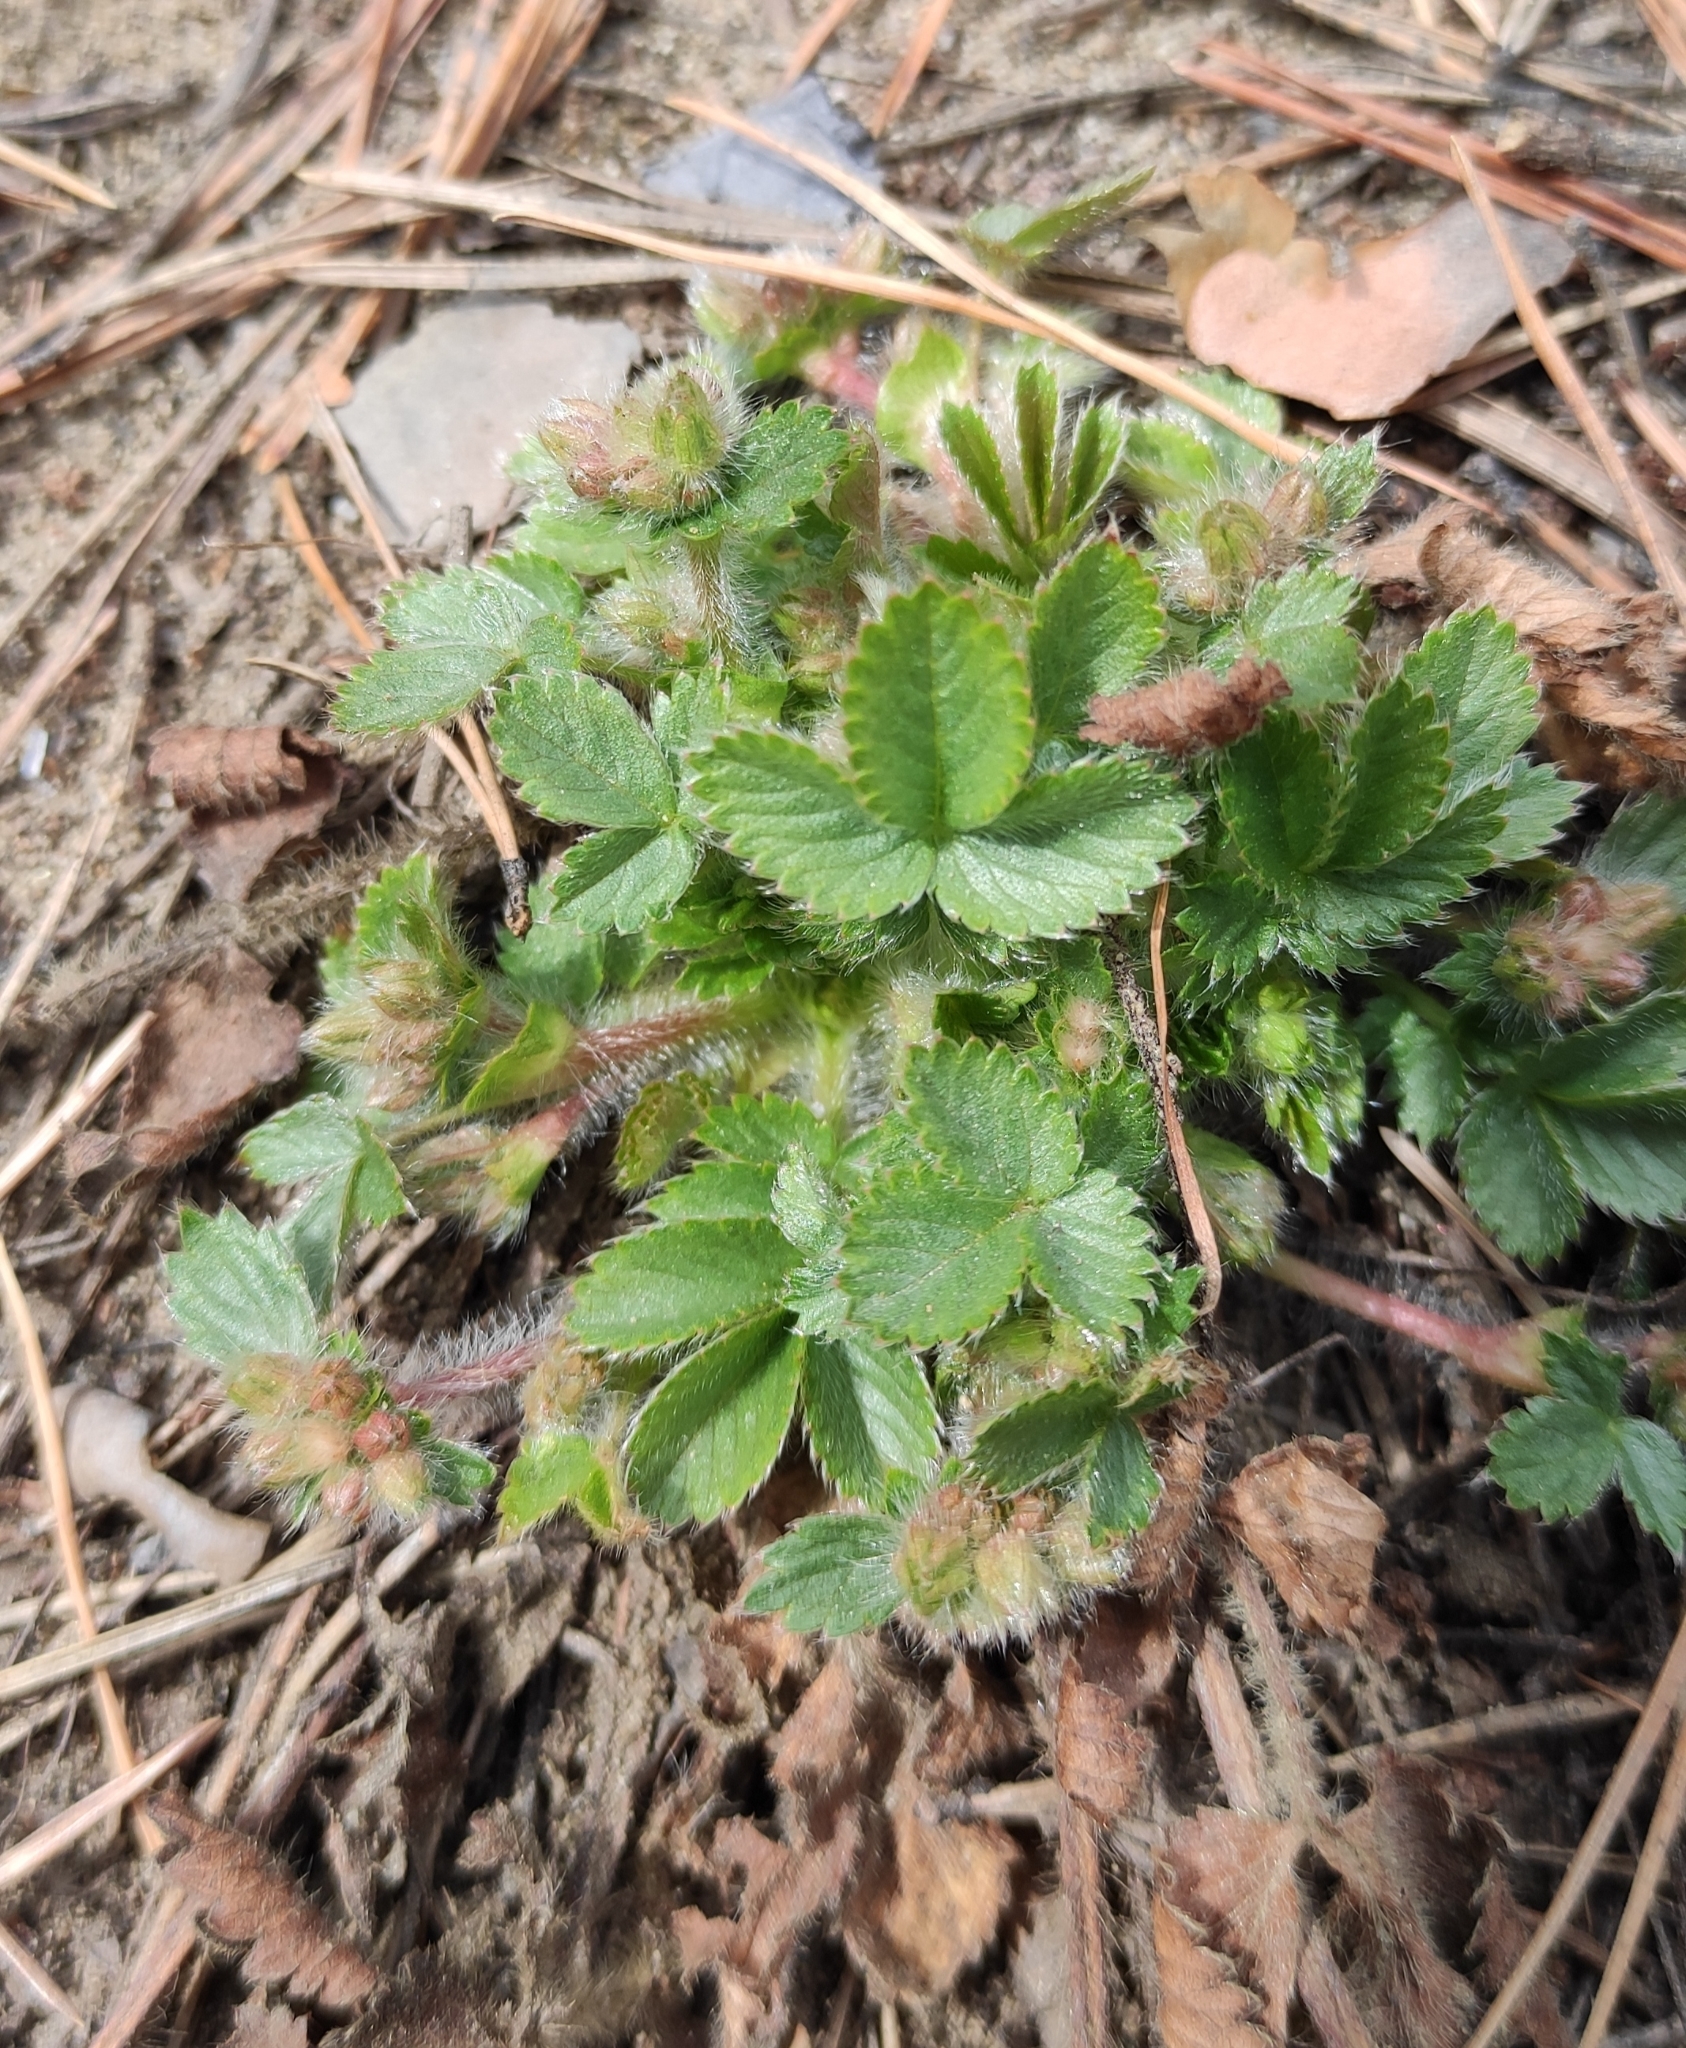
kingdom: Plantae
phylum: Tracheophyta
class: Magnoliopsida
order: Rosales
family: Rosaceae
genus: Potentilla
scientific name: Potentilla fragarioides
